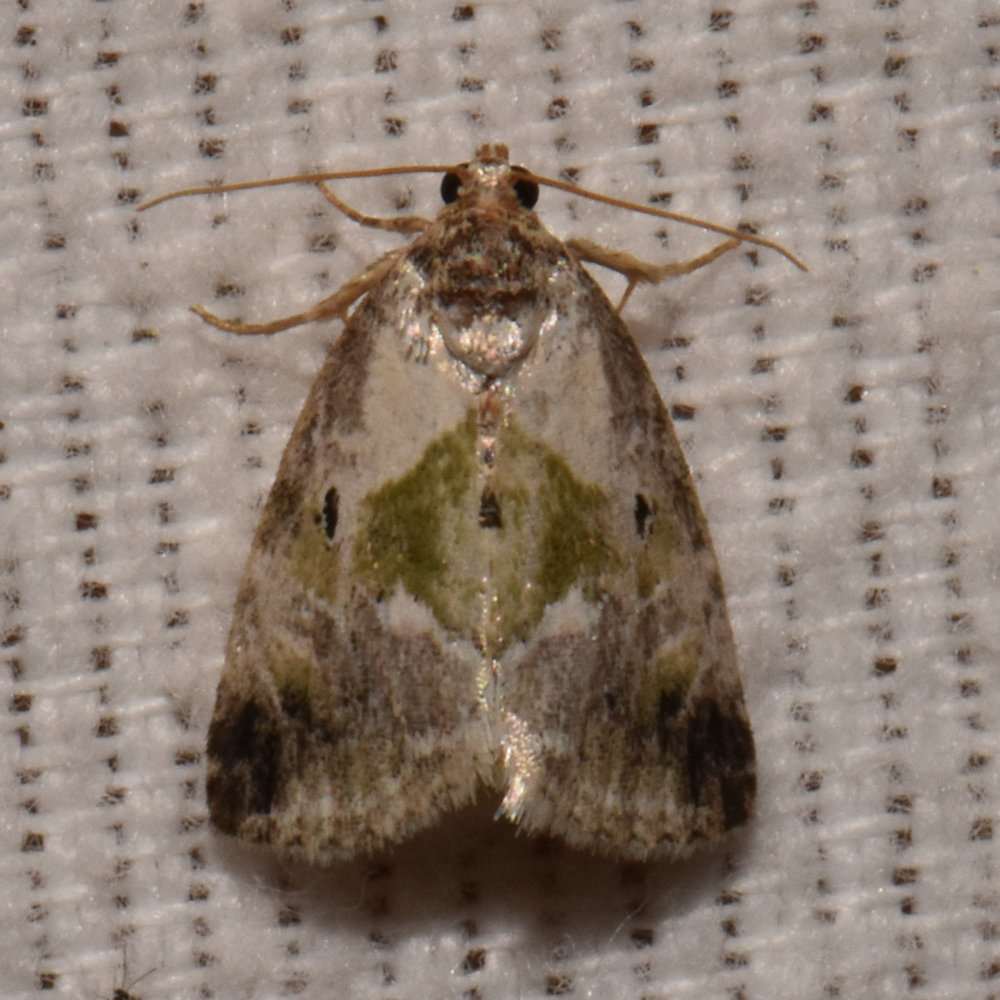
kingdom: Animalia
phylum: Arthropoda
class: Insecta
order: Lepidoptera
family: Noctuidae
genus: Maliattha
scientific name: Maliattha synochitis
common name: Black-dotted glyph
